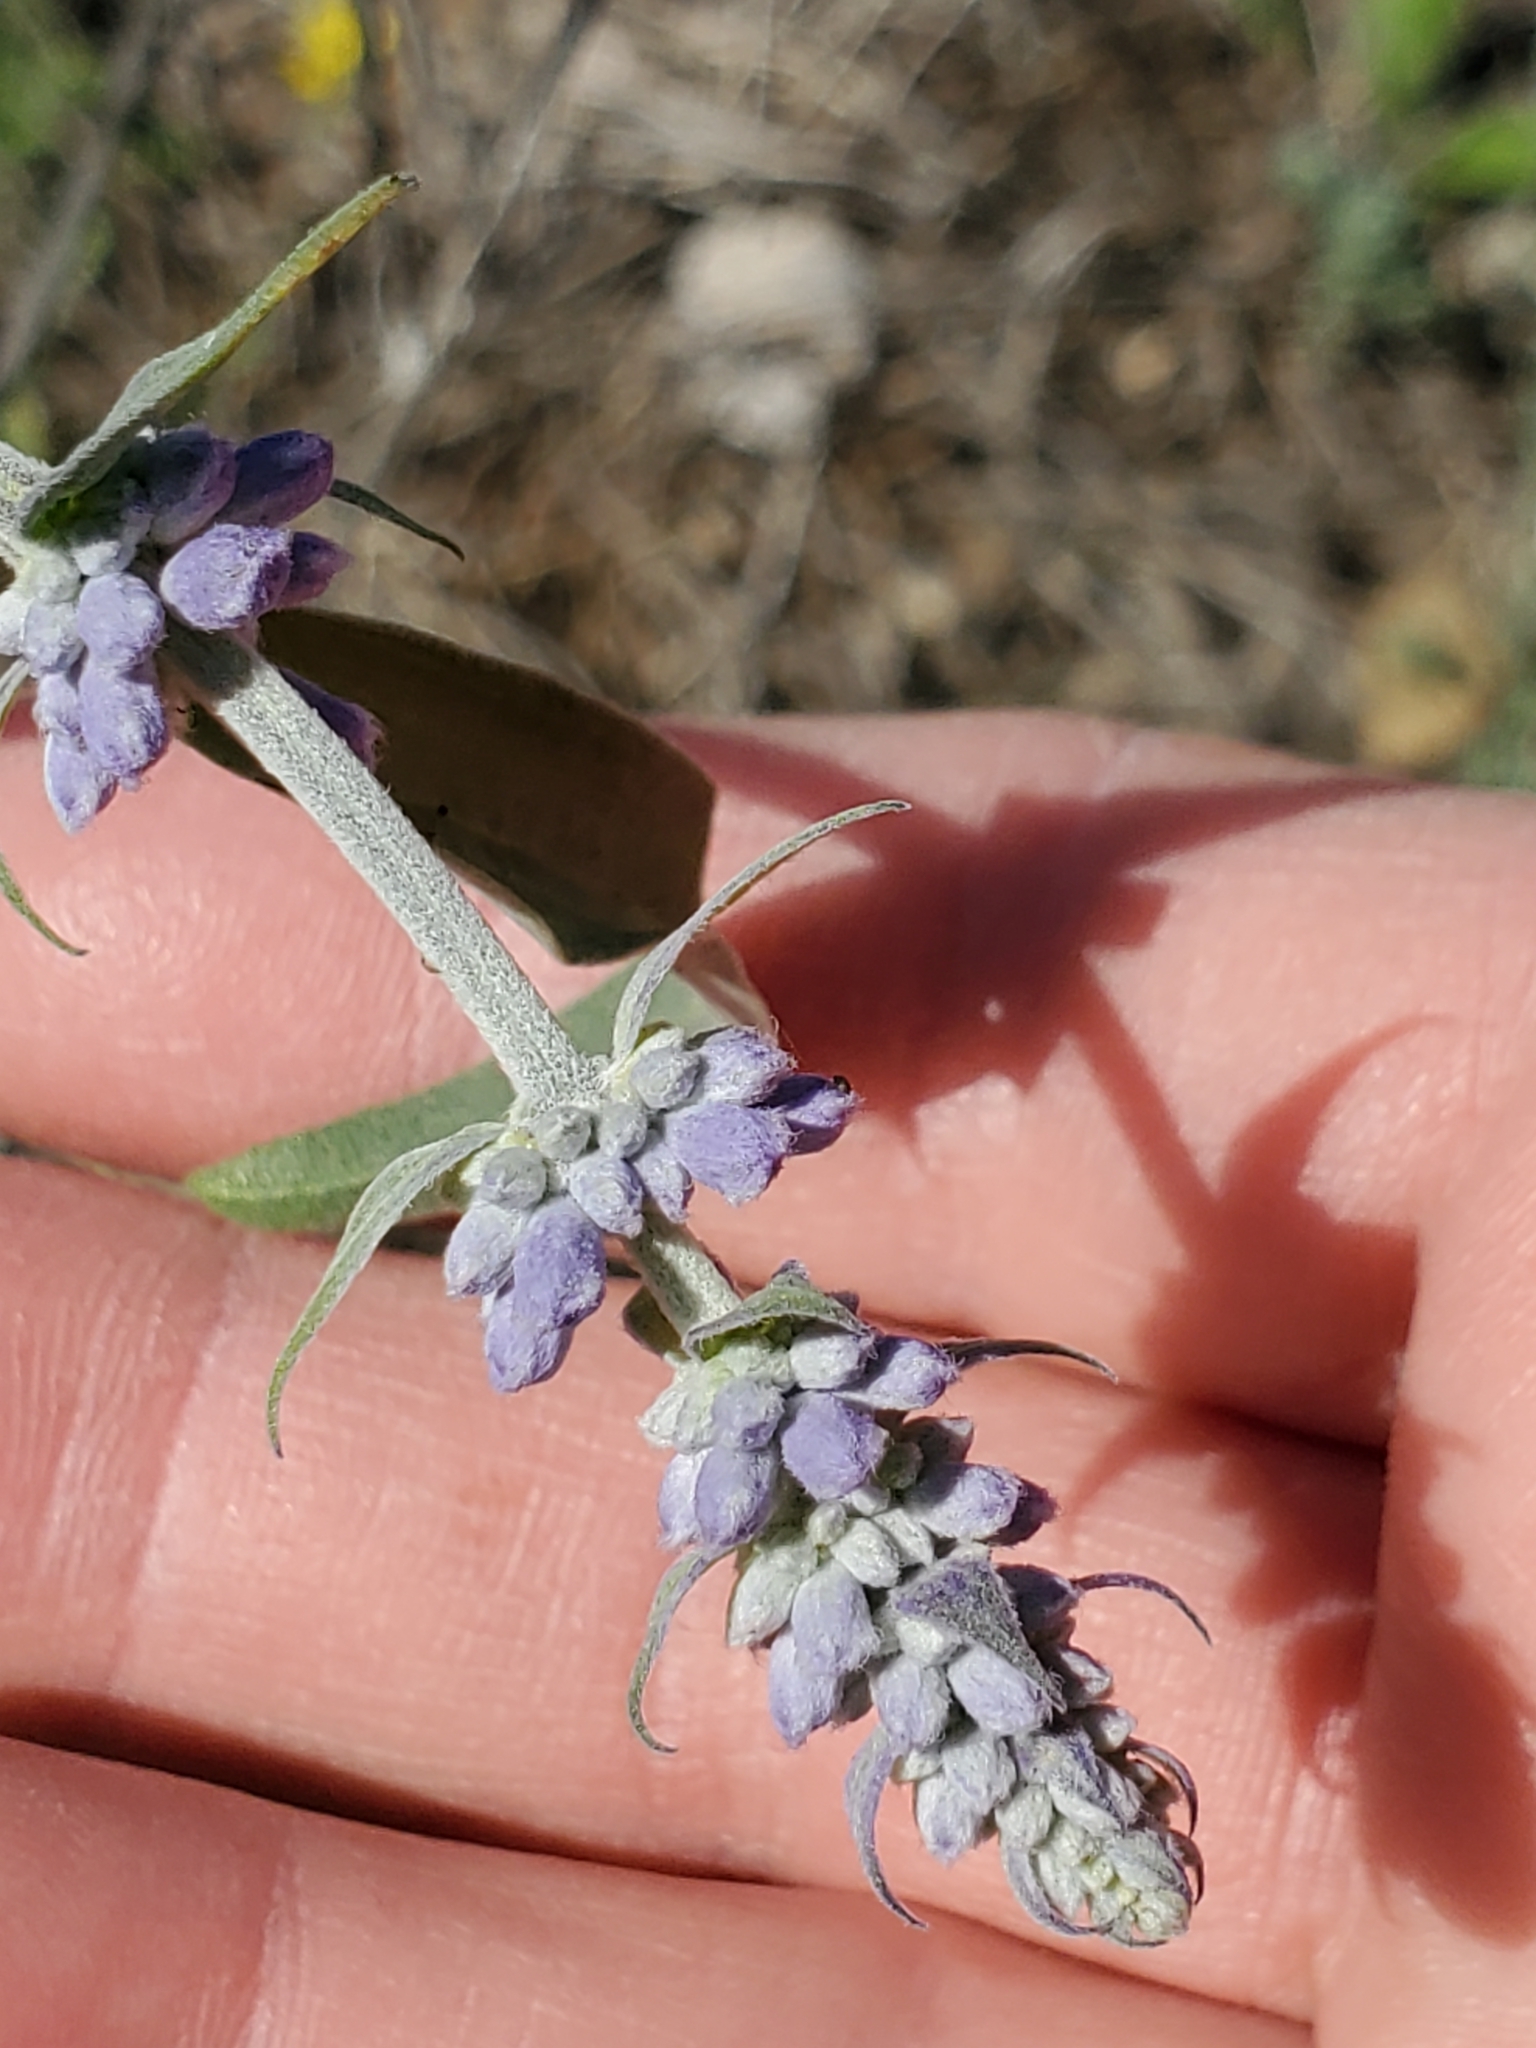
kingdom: Plantae
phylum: Tracheophyta
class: Magnoliopsida
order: Lamiales
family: Lamiaceae
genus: Salvia
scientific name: Salvia farinacea
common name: Mealy sage
